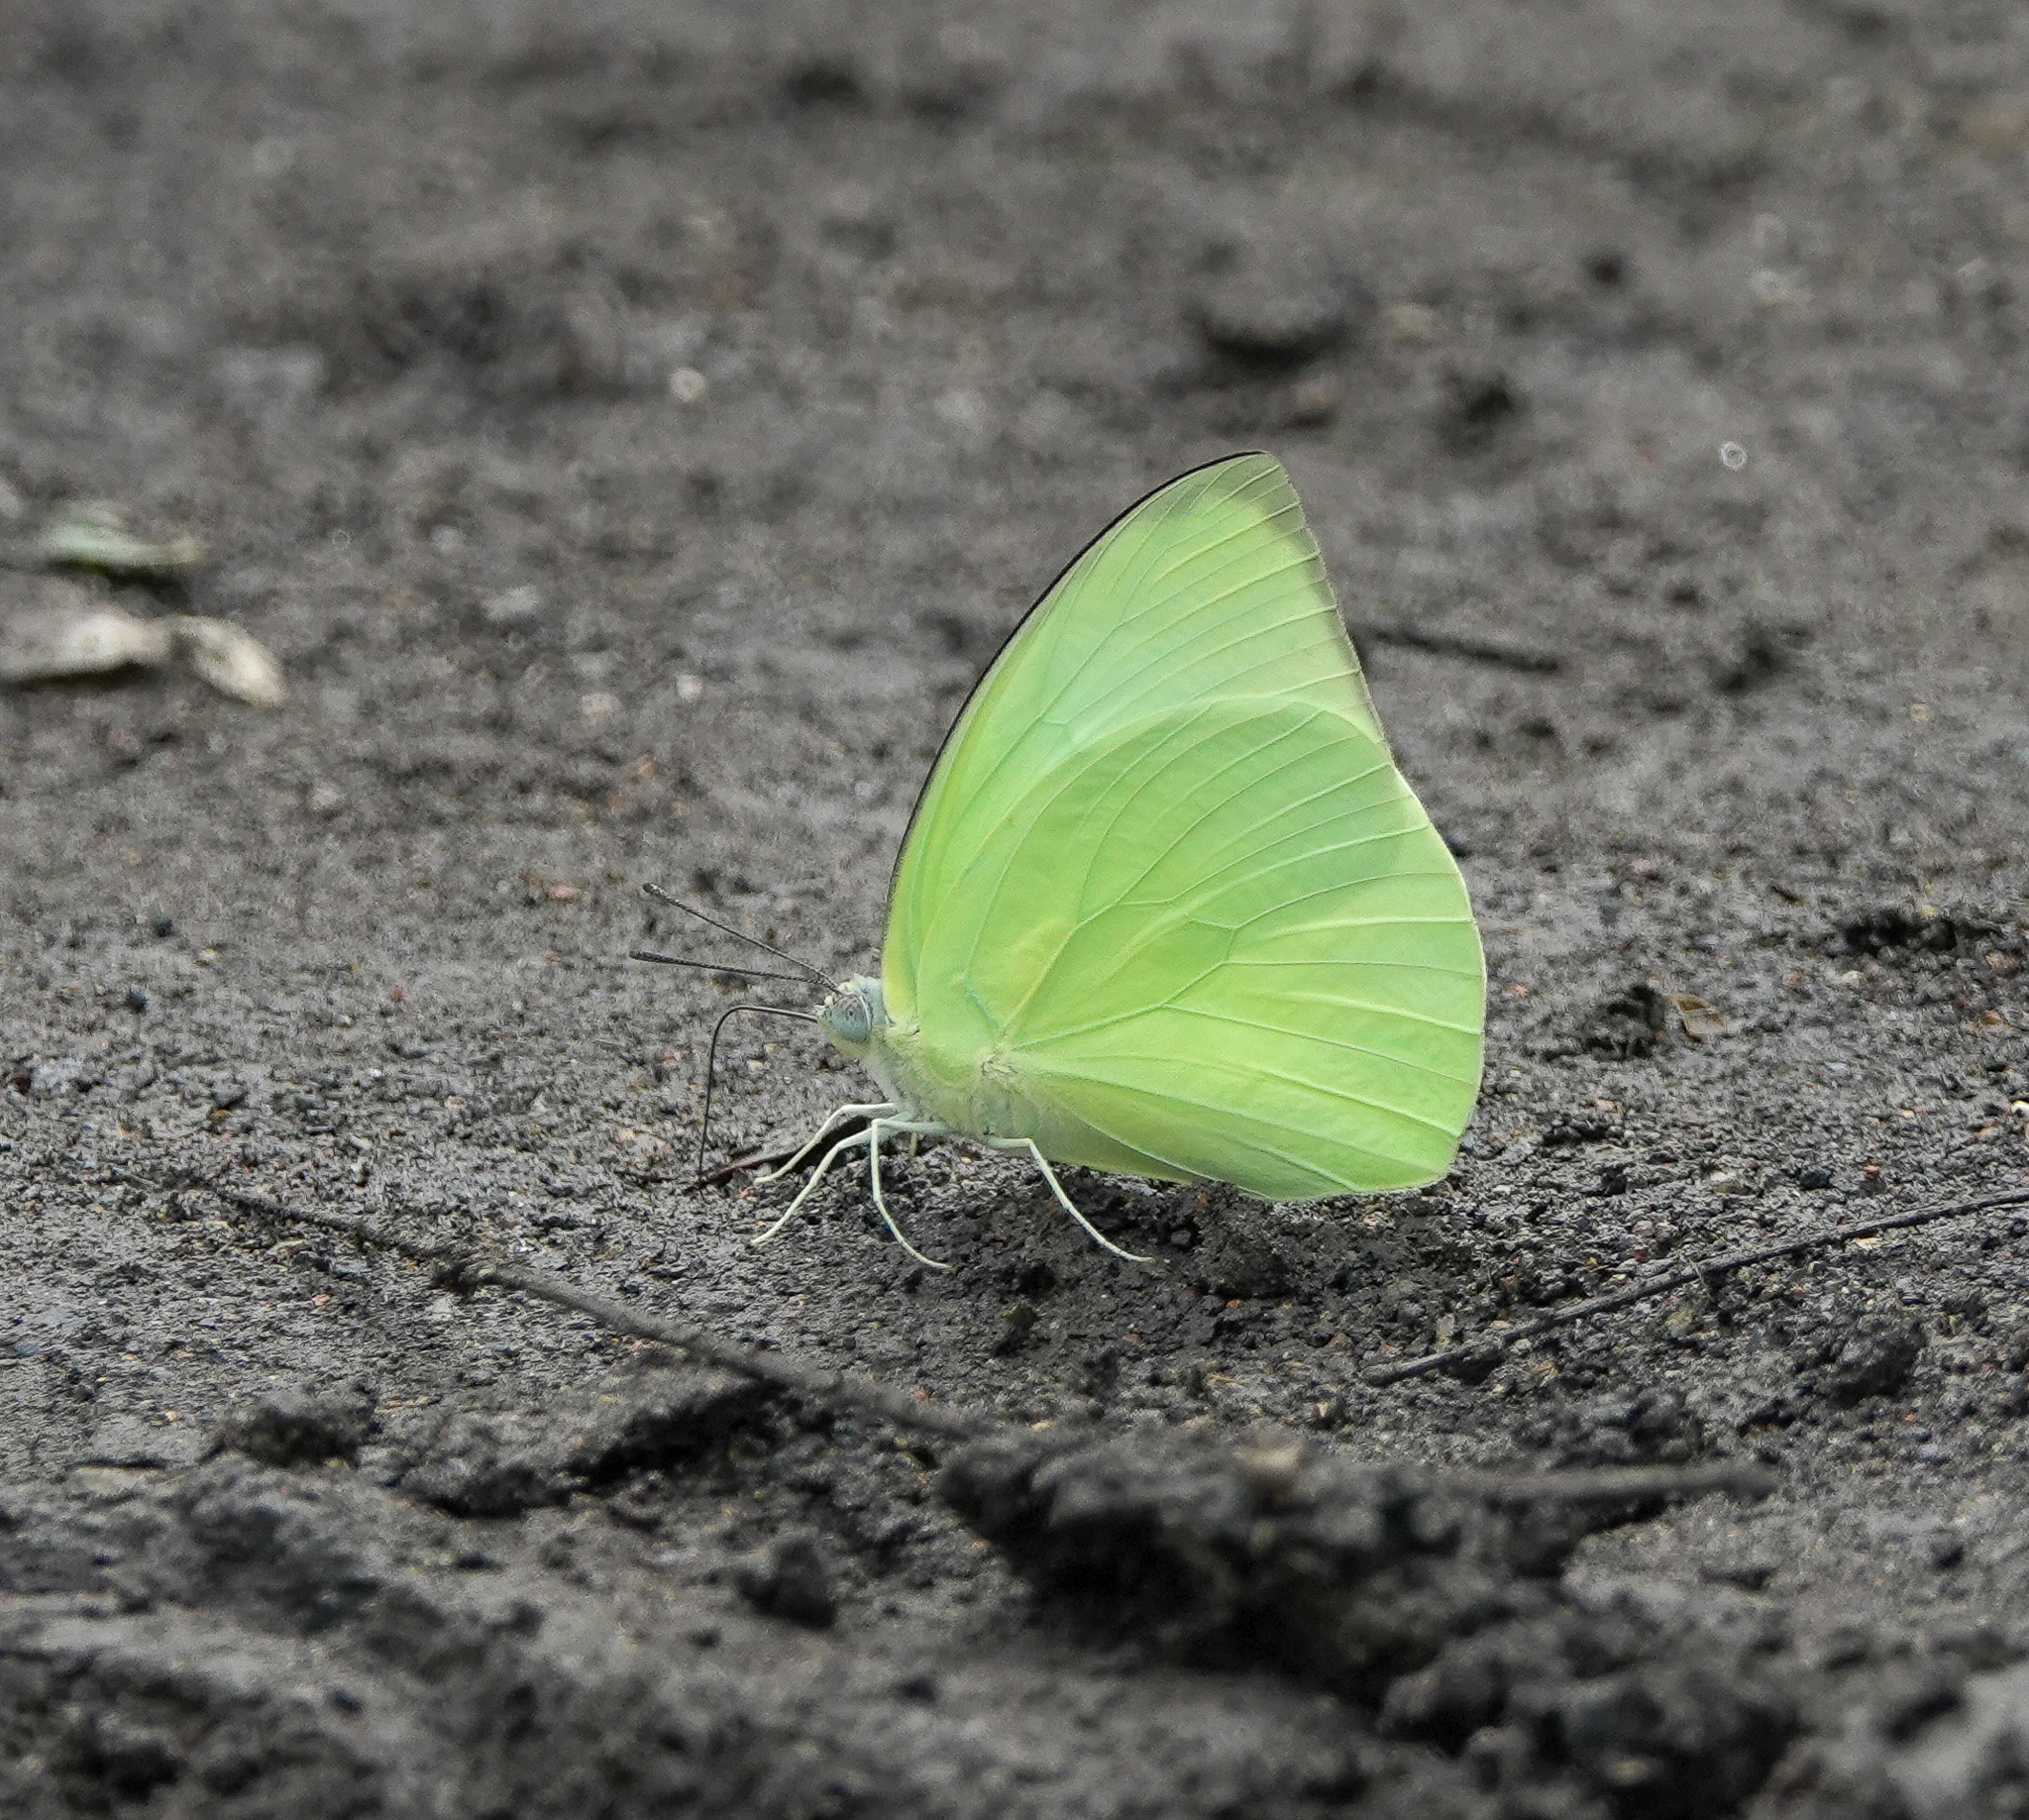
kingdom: Animalia
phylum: Arthropoda
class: Insecta
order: Lepidoptera
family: Pieridae
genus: Catopsilia
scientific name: Catopsilia pomona
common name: Common emigrant
